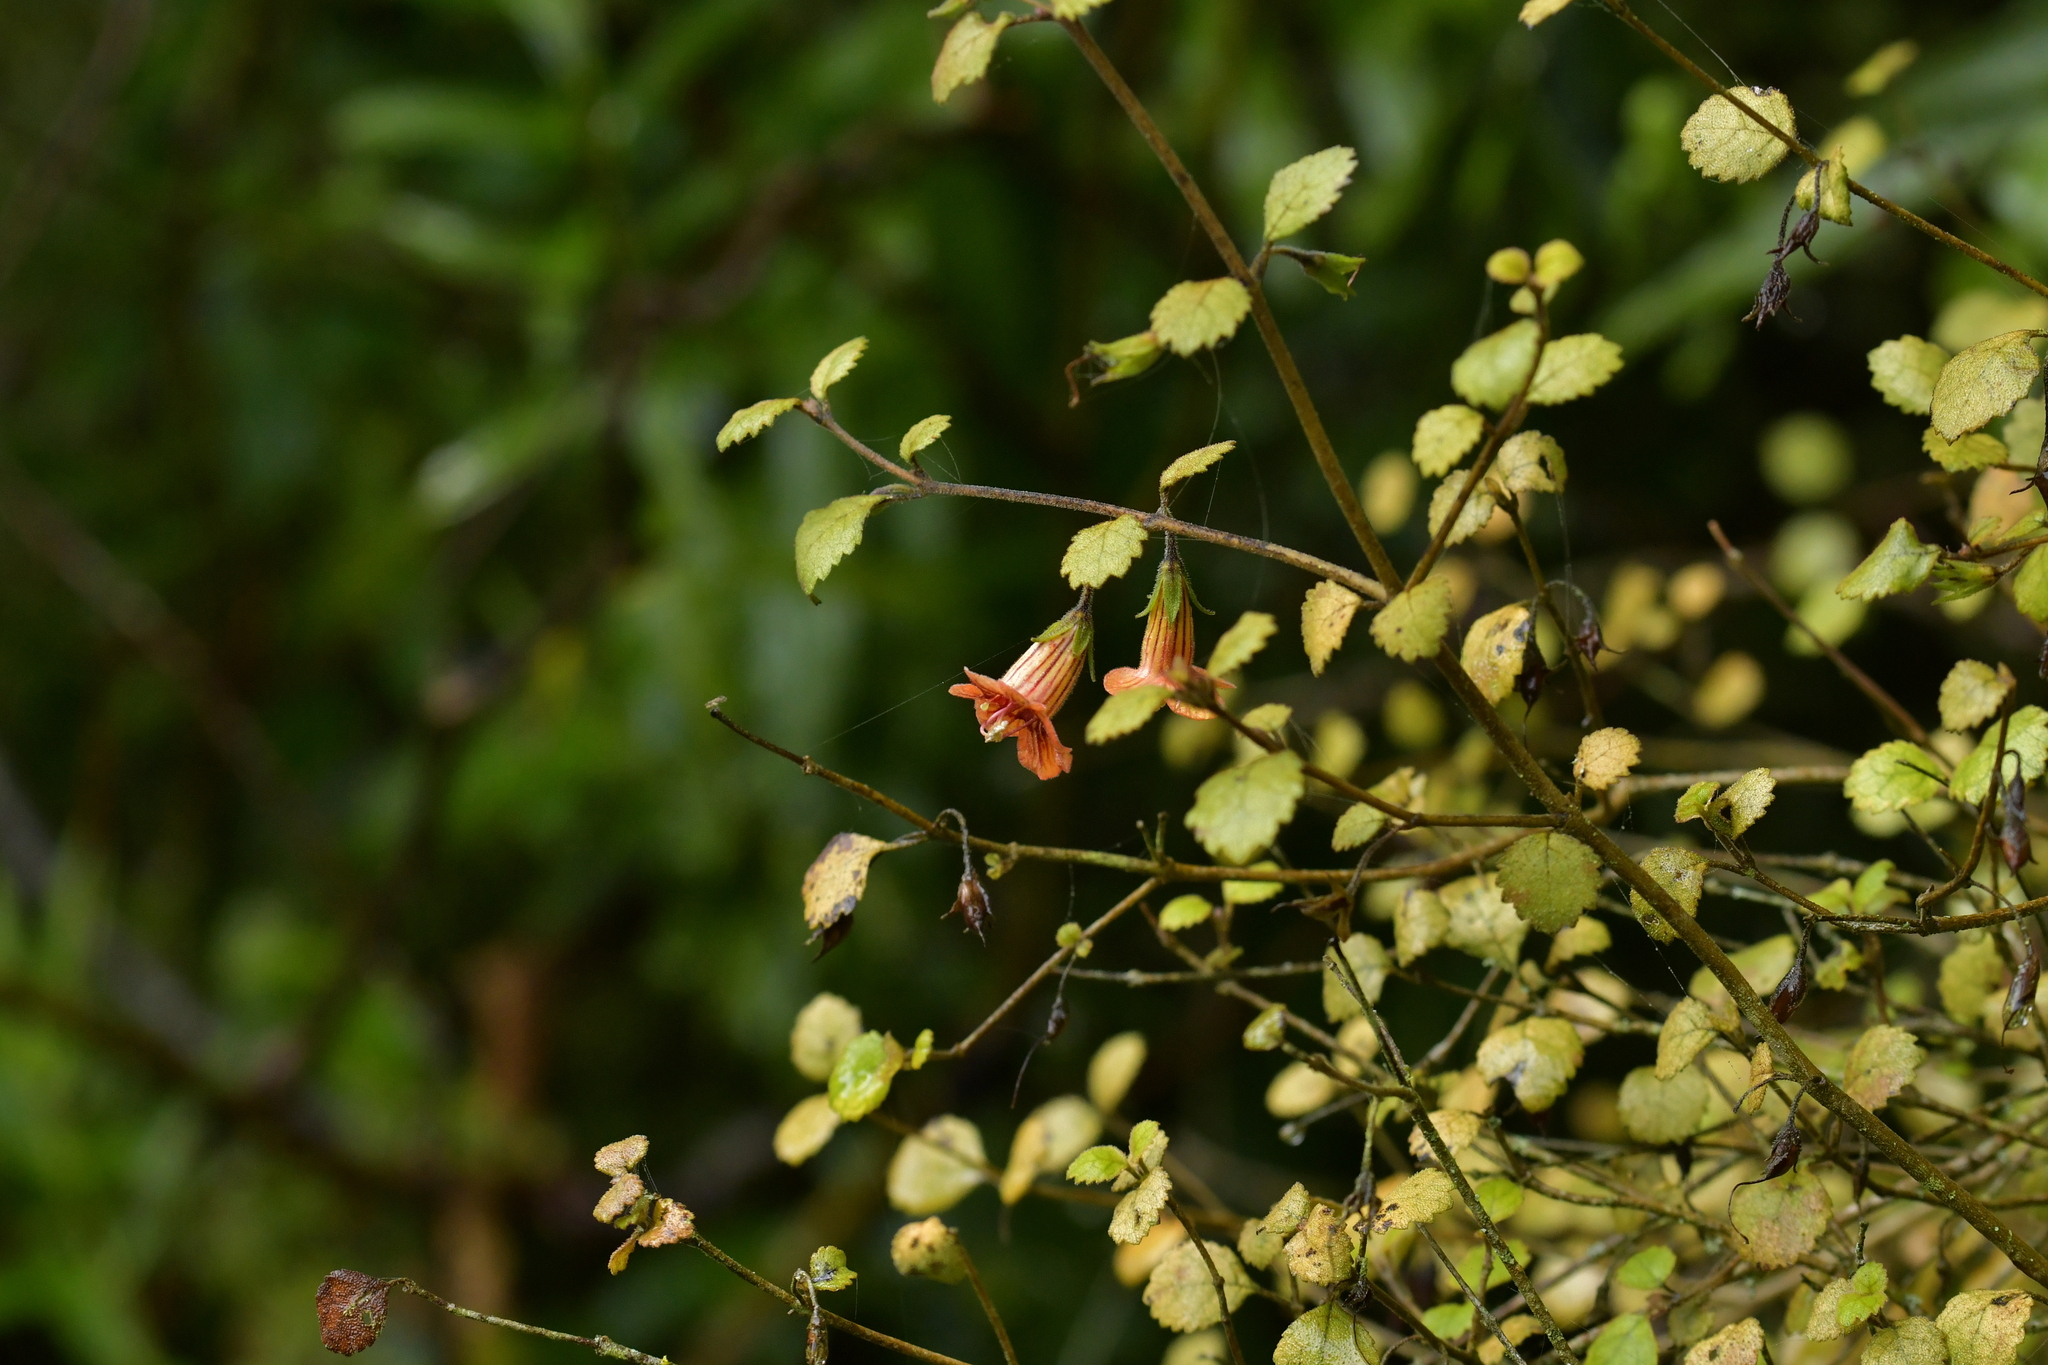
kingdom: Plantae
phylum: Tracheophyta
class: Magnoliopsida
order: Lamiales
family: Gesneriaceae
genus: Rhabdothamnus
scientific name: Rhabdothamnus solandri
